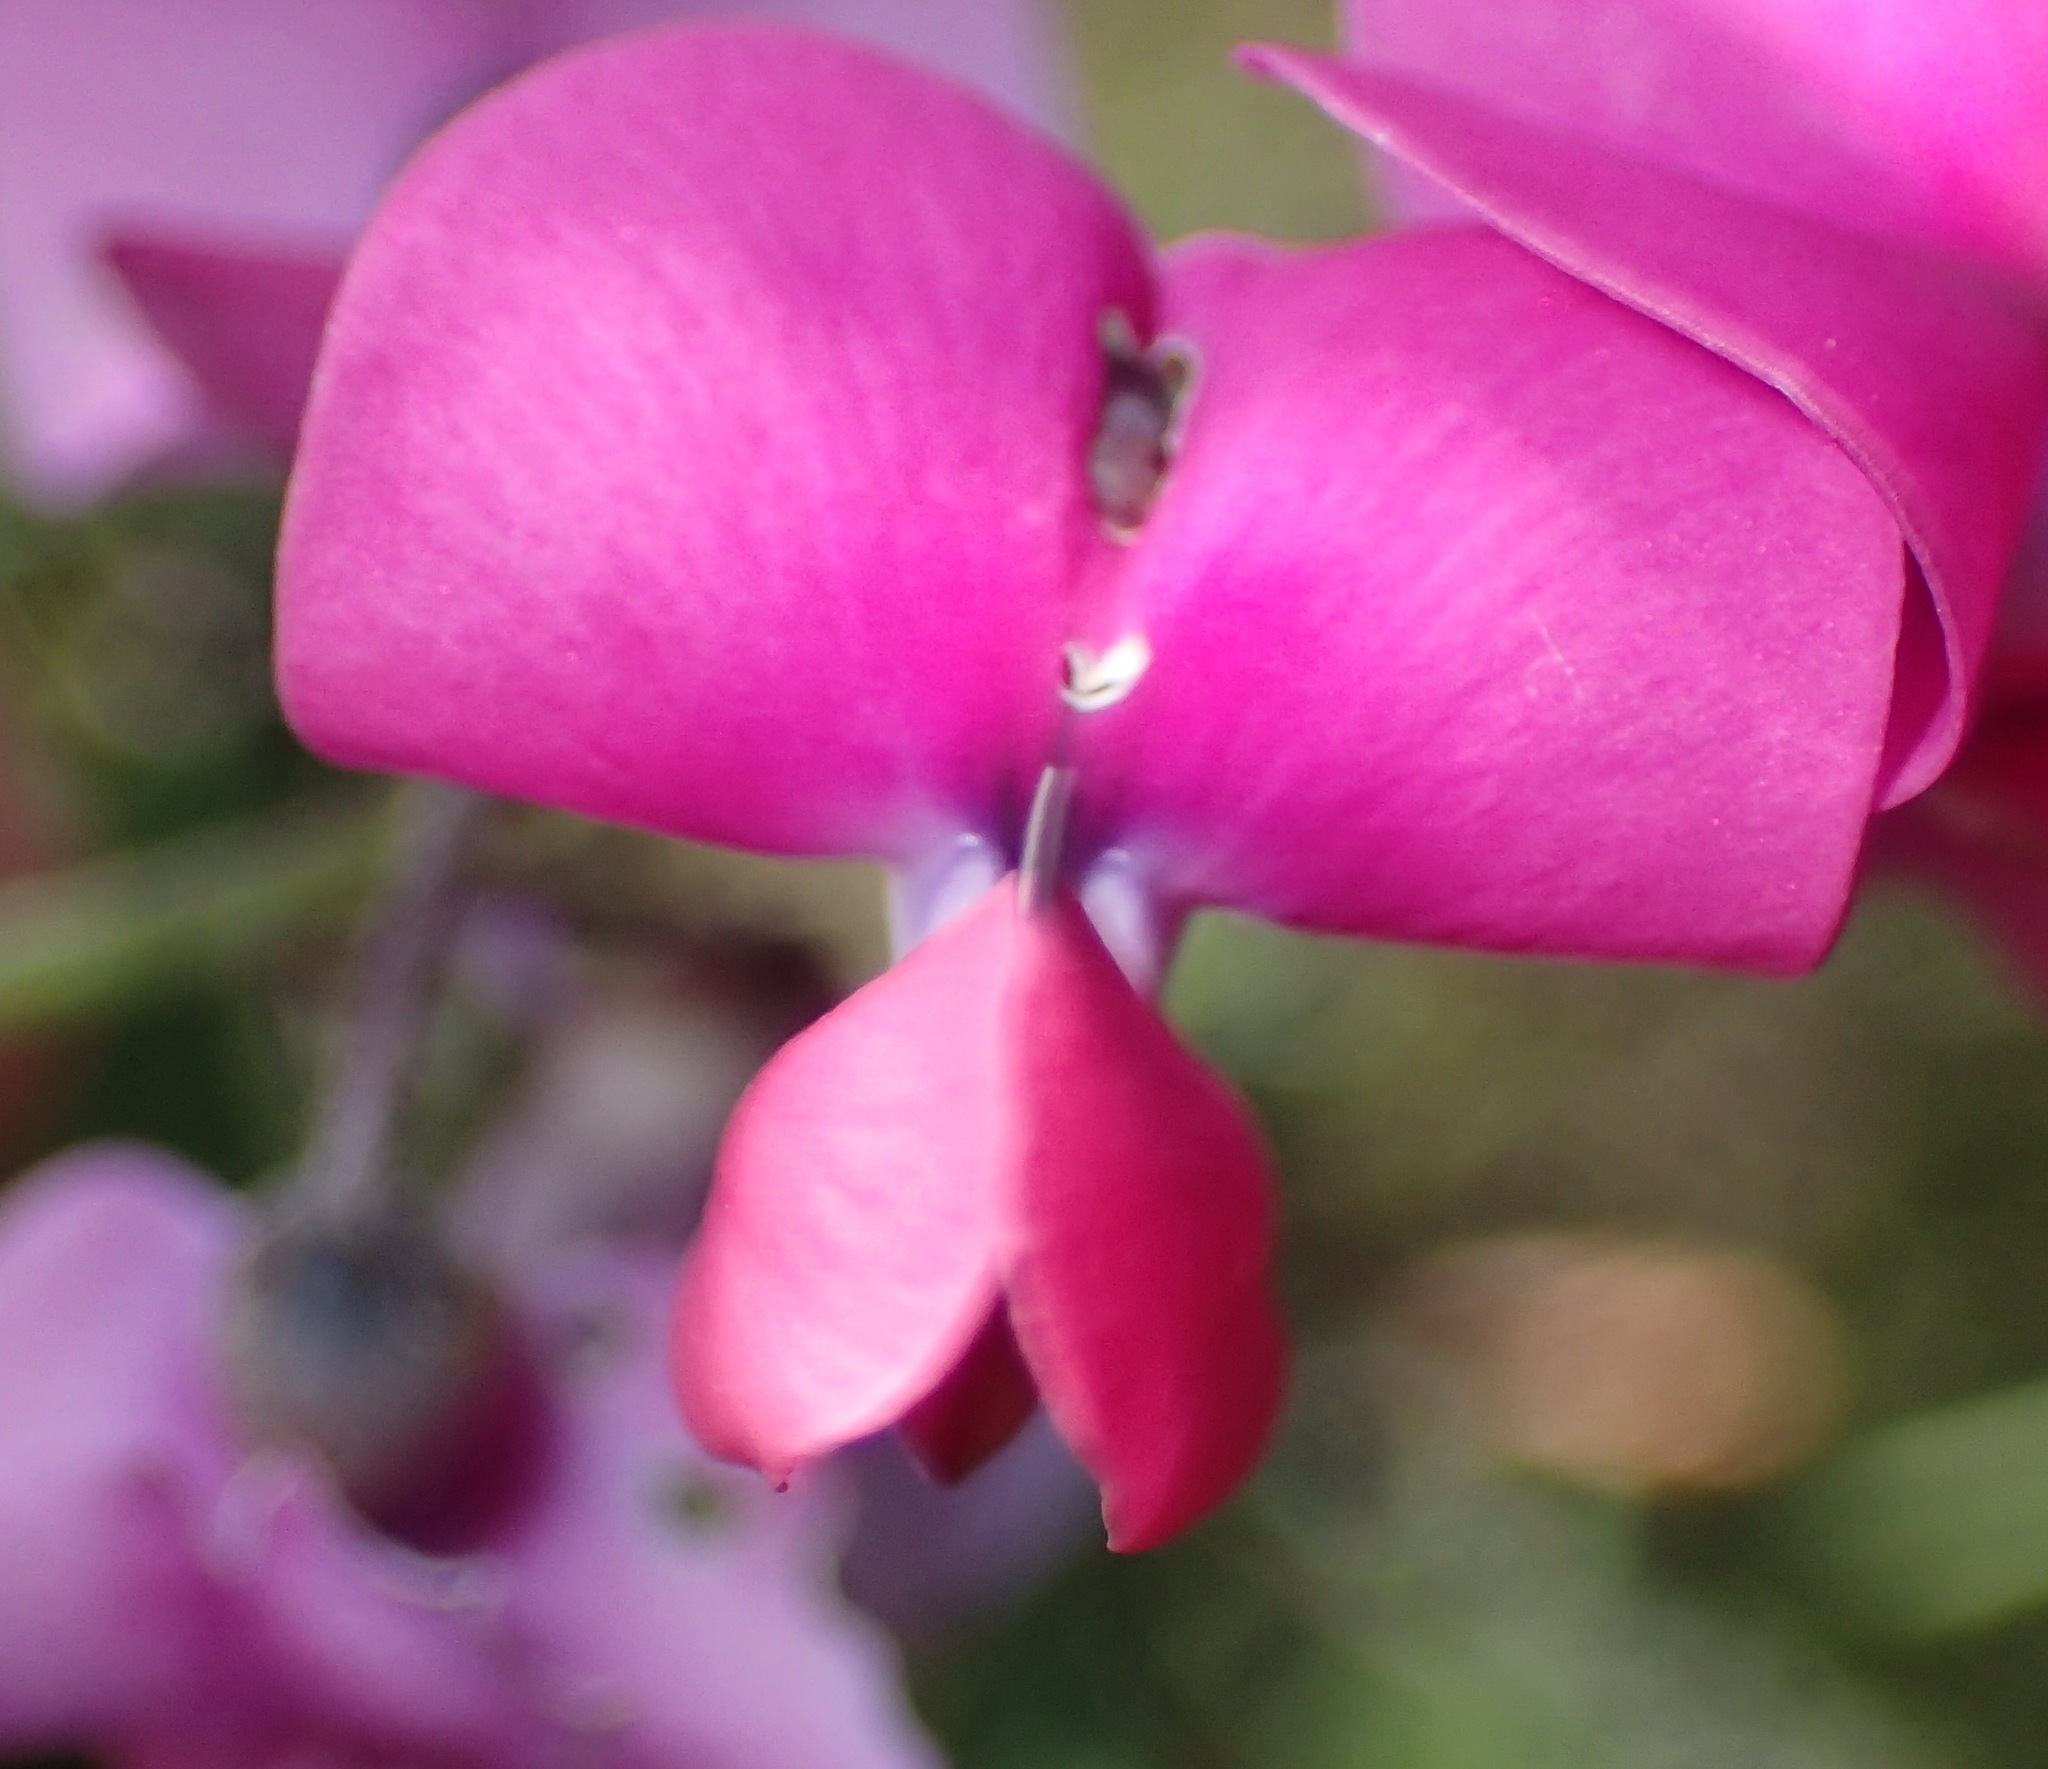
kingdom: Plantae
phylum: Tracheophyta
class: Magnoliopsida
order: Fabales
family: Fabaceae
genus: Dipogon
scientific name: Dipogon lignosus
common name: Okie bean
